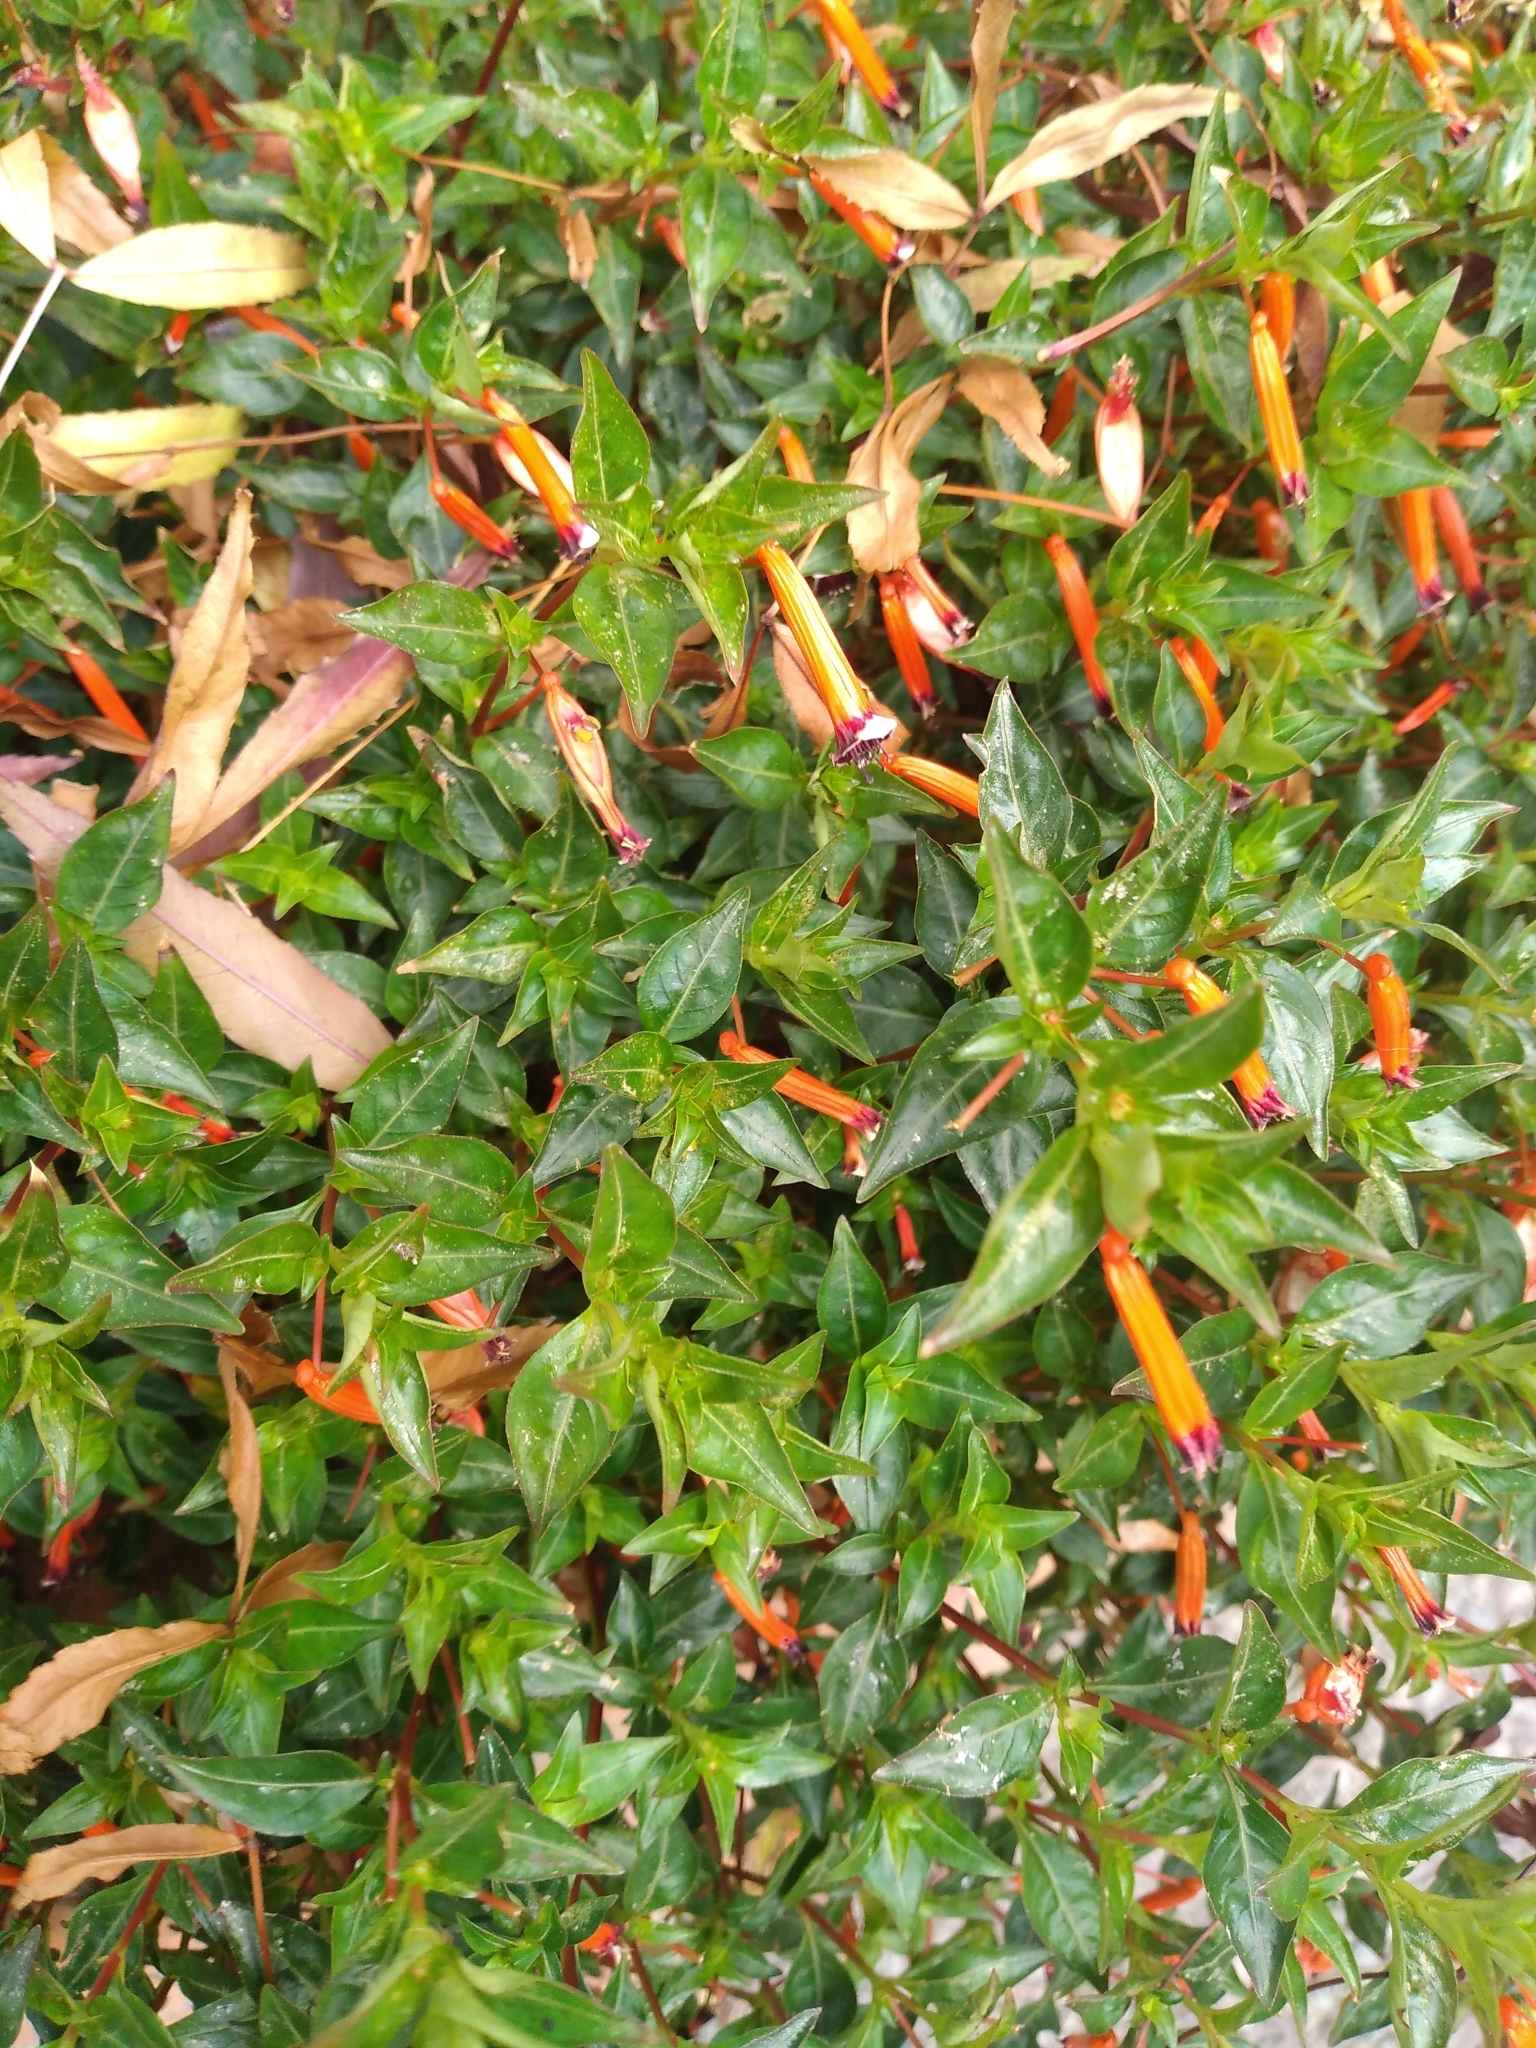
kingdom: Plantae
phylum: Tracheophyta
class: Magnoliopsida
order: Myrtales
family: Lythraceae
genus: Cuphea
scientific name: Cuphea ignea
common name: Cigar flower
